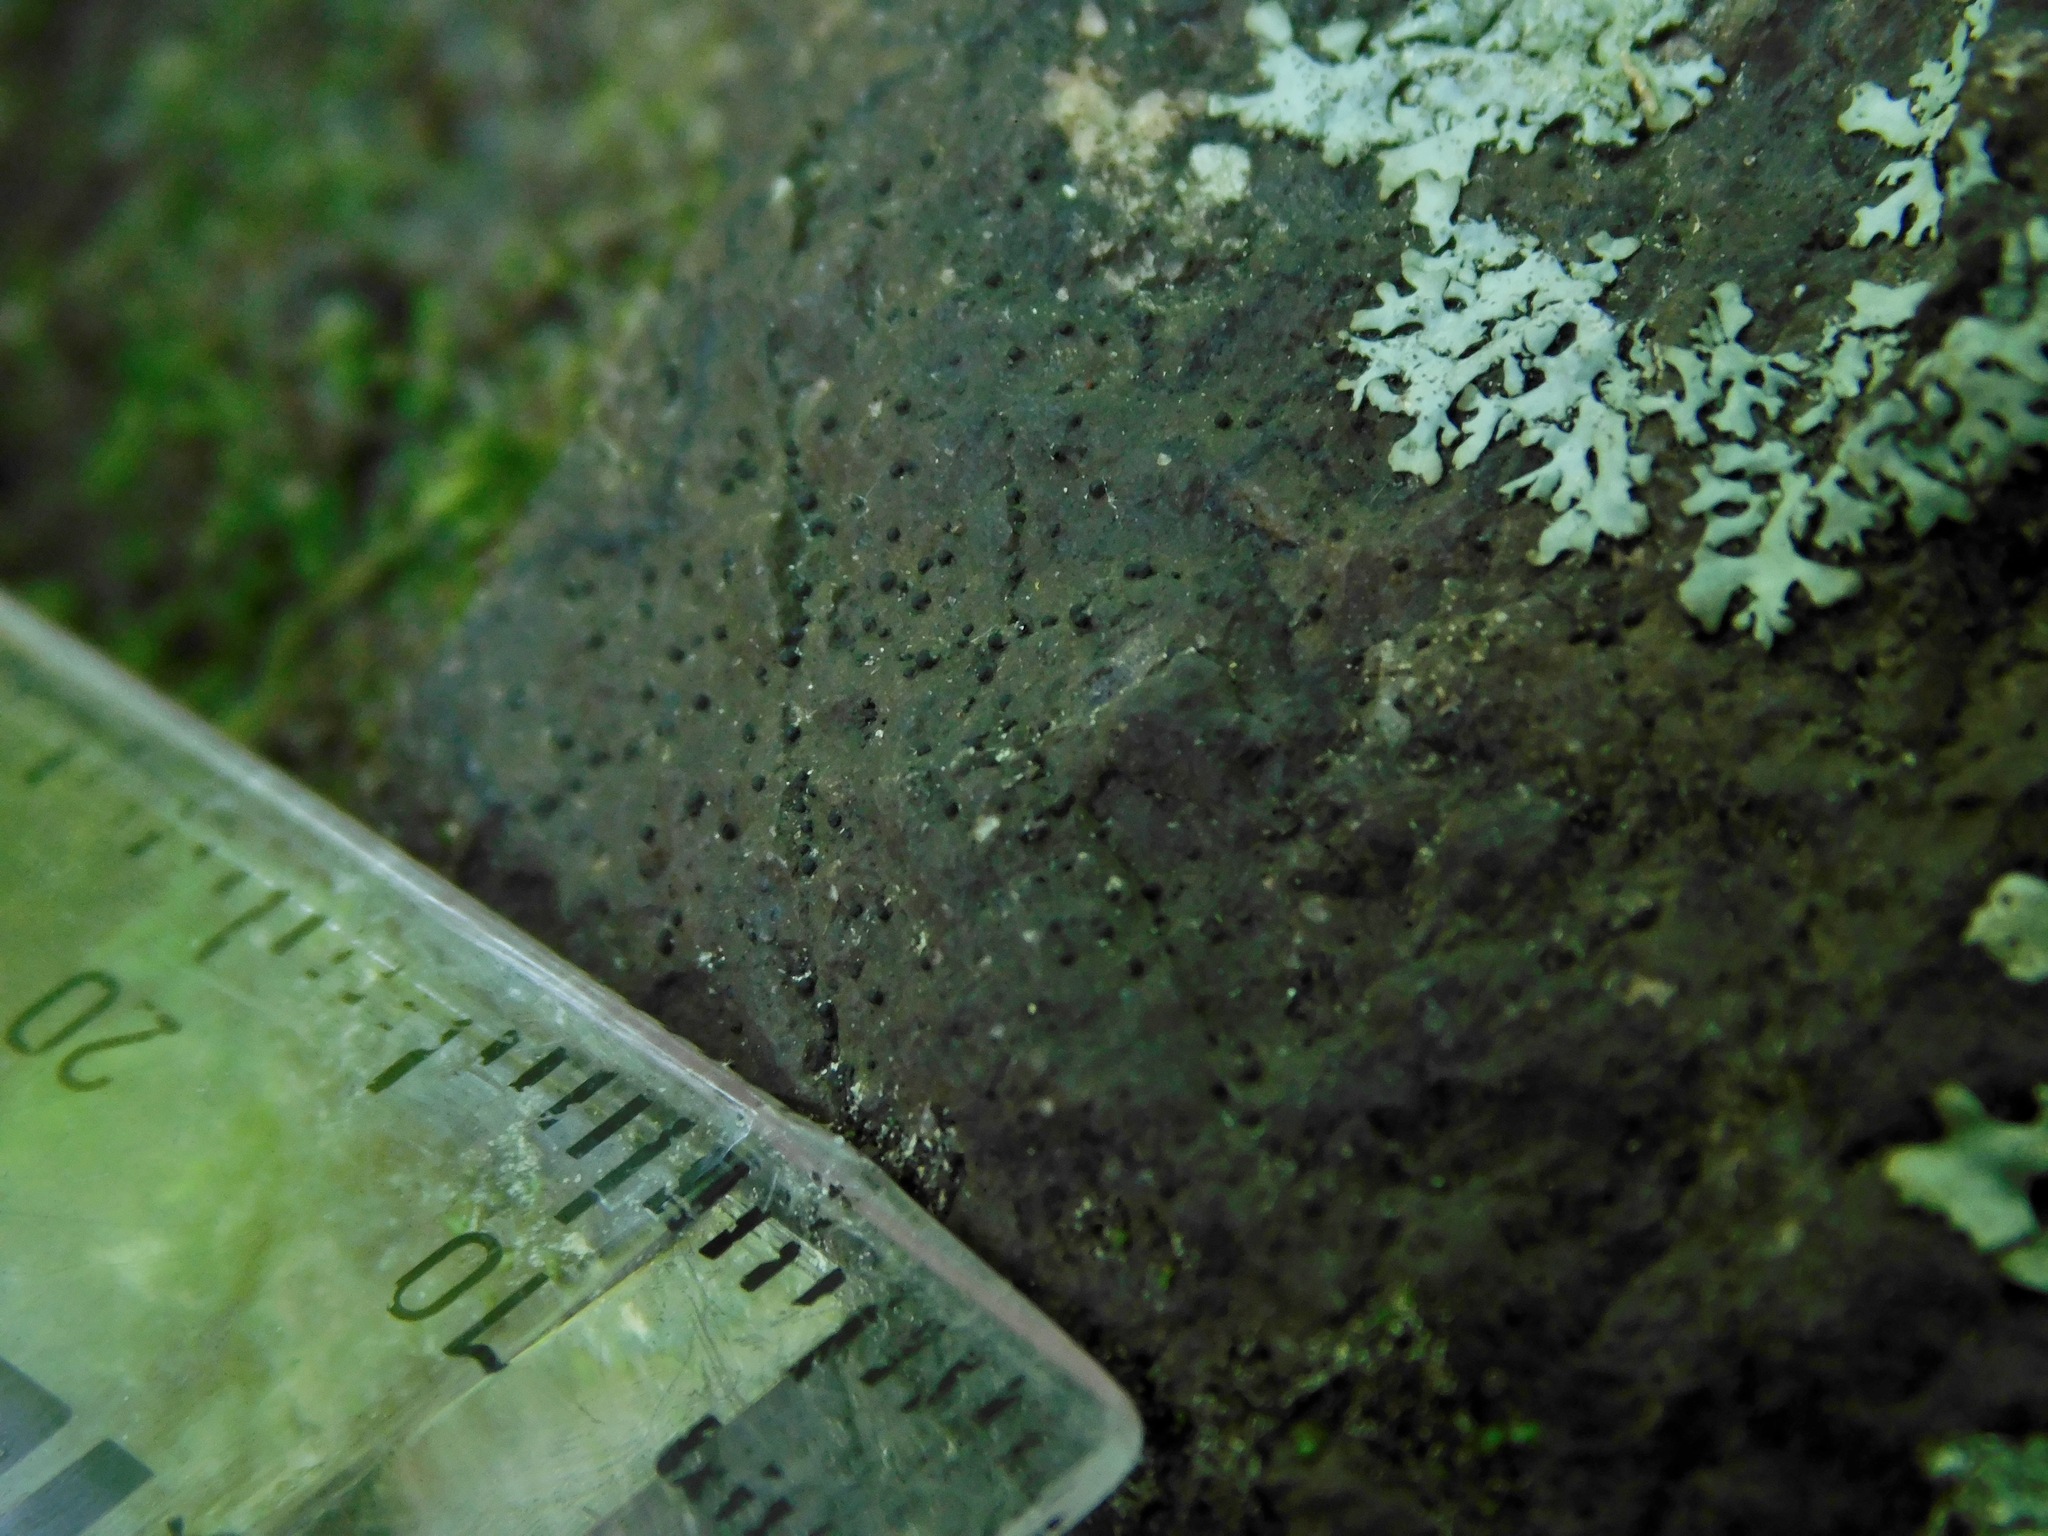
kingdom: Fungi
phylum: Ascomycota
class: Lecanoromycetes
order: Ostropales
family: Porinaceae
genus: Pseudosagedia
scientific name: Pseudosagedia guentheri
